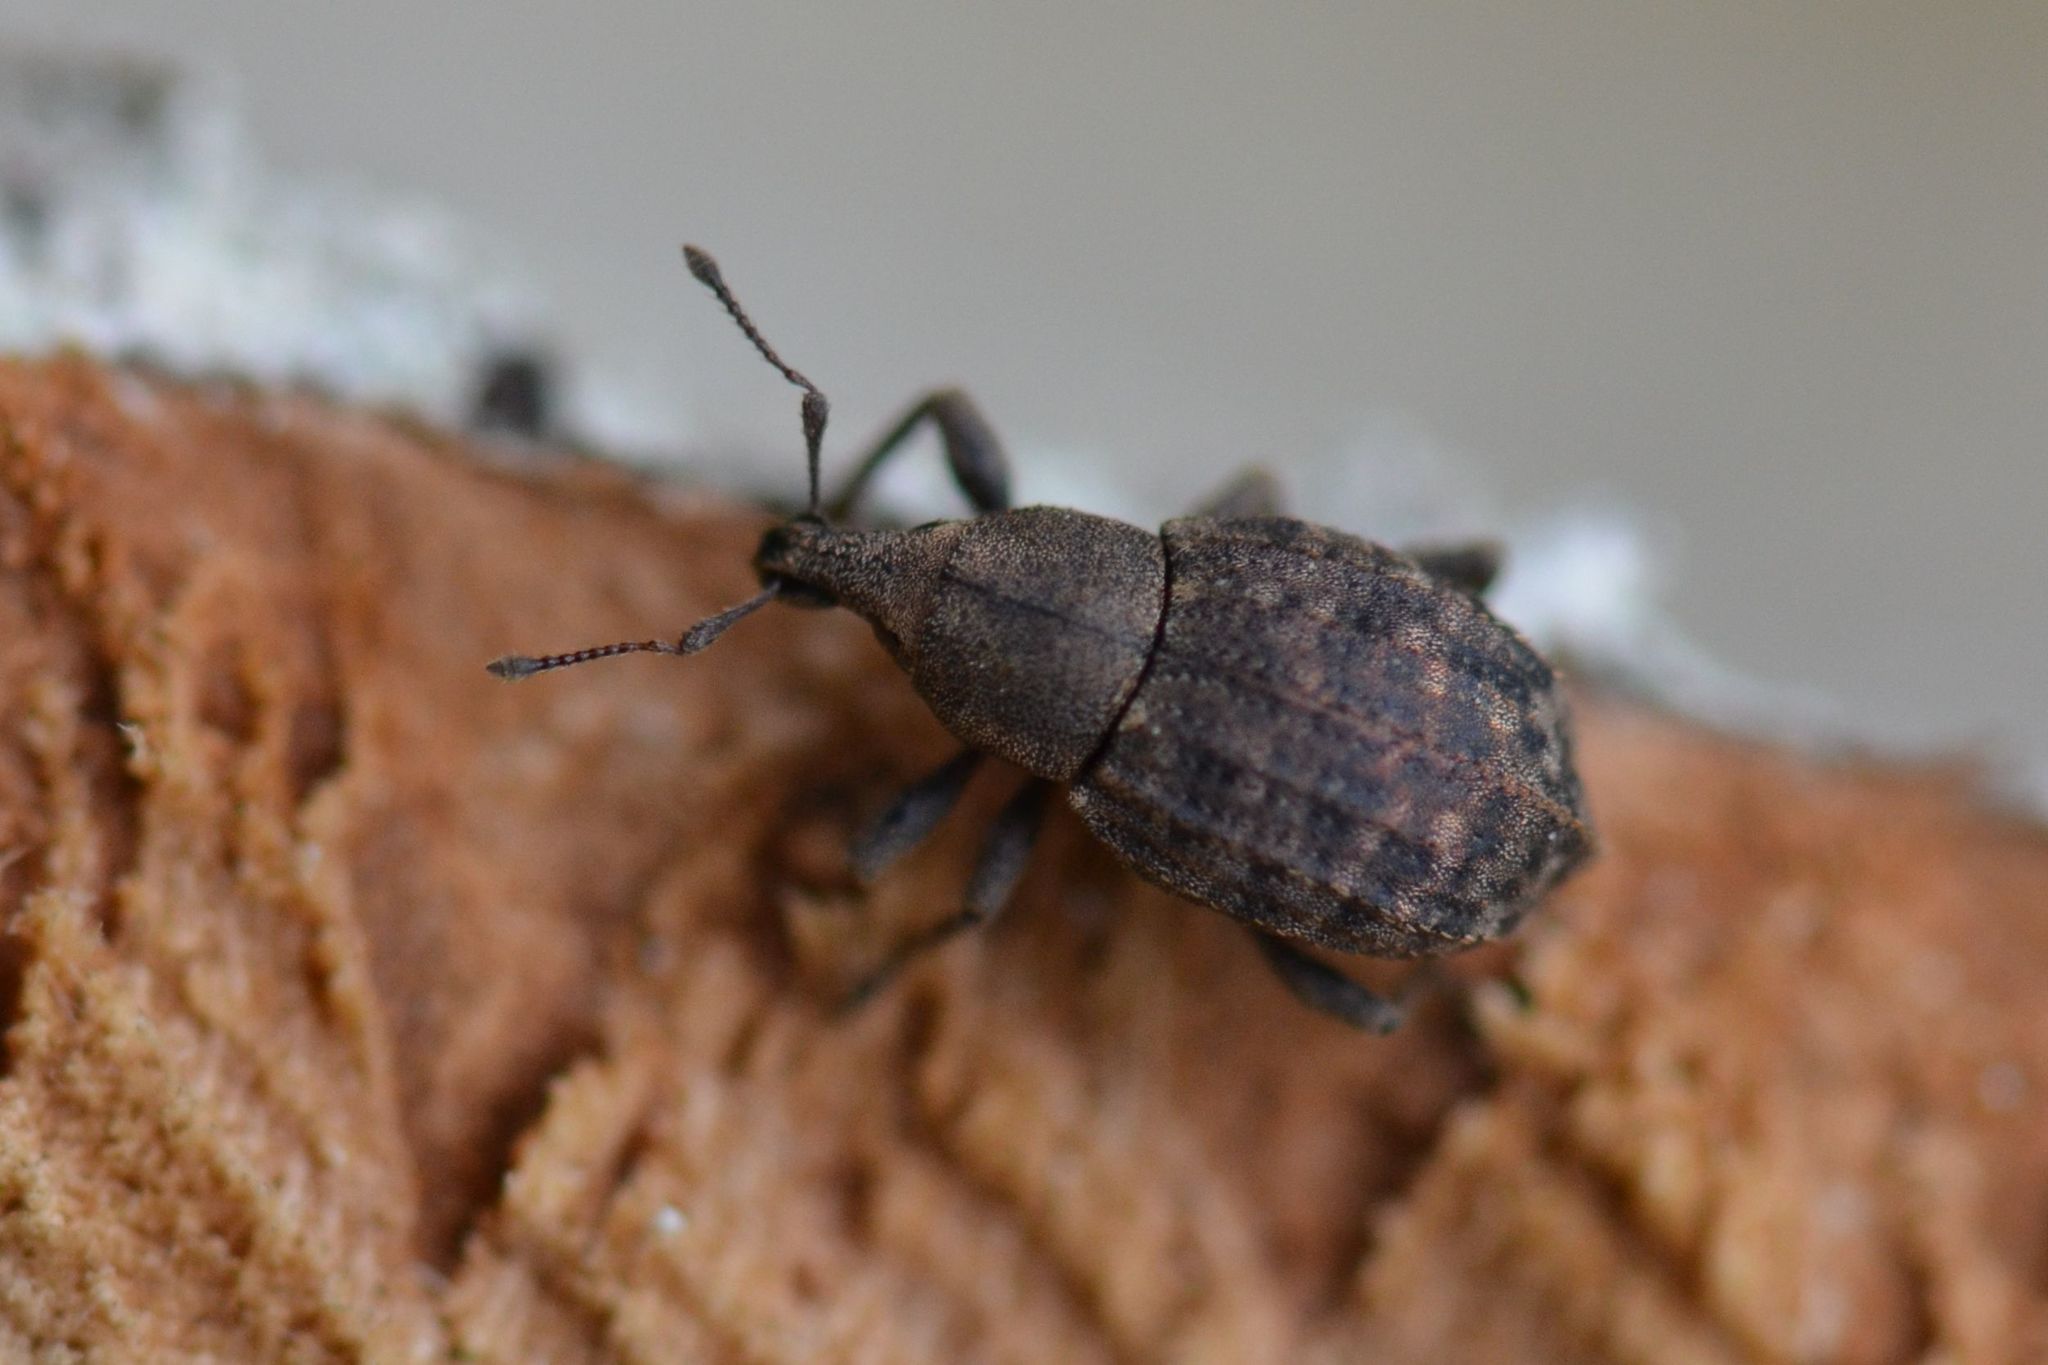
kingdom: Animalia
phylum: Arthropoda
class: Insecta
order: Coleoptera
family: Curculionidae
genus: Tropiphorus
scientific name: Tropiphorus elevatus
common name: Weevil
